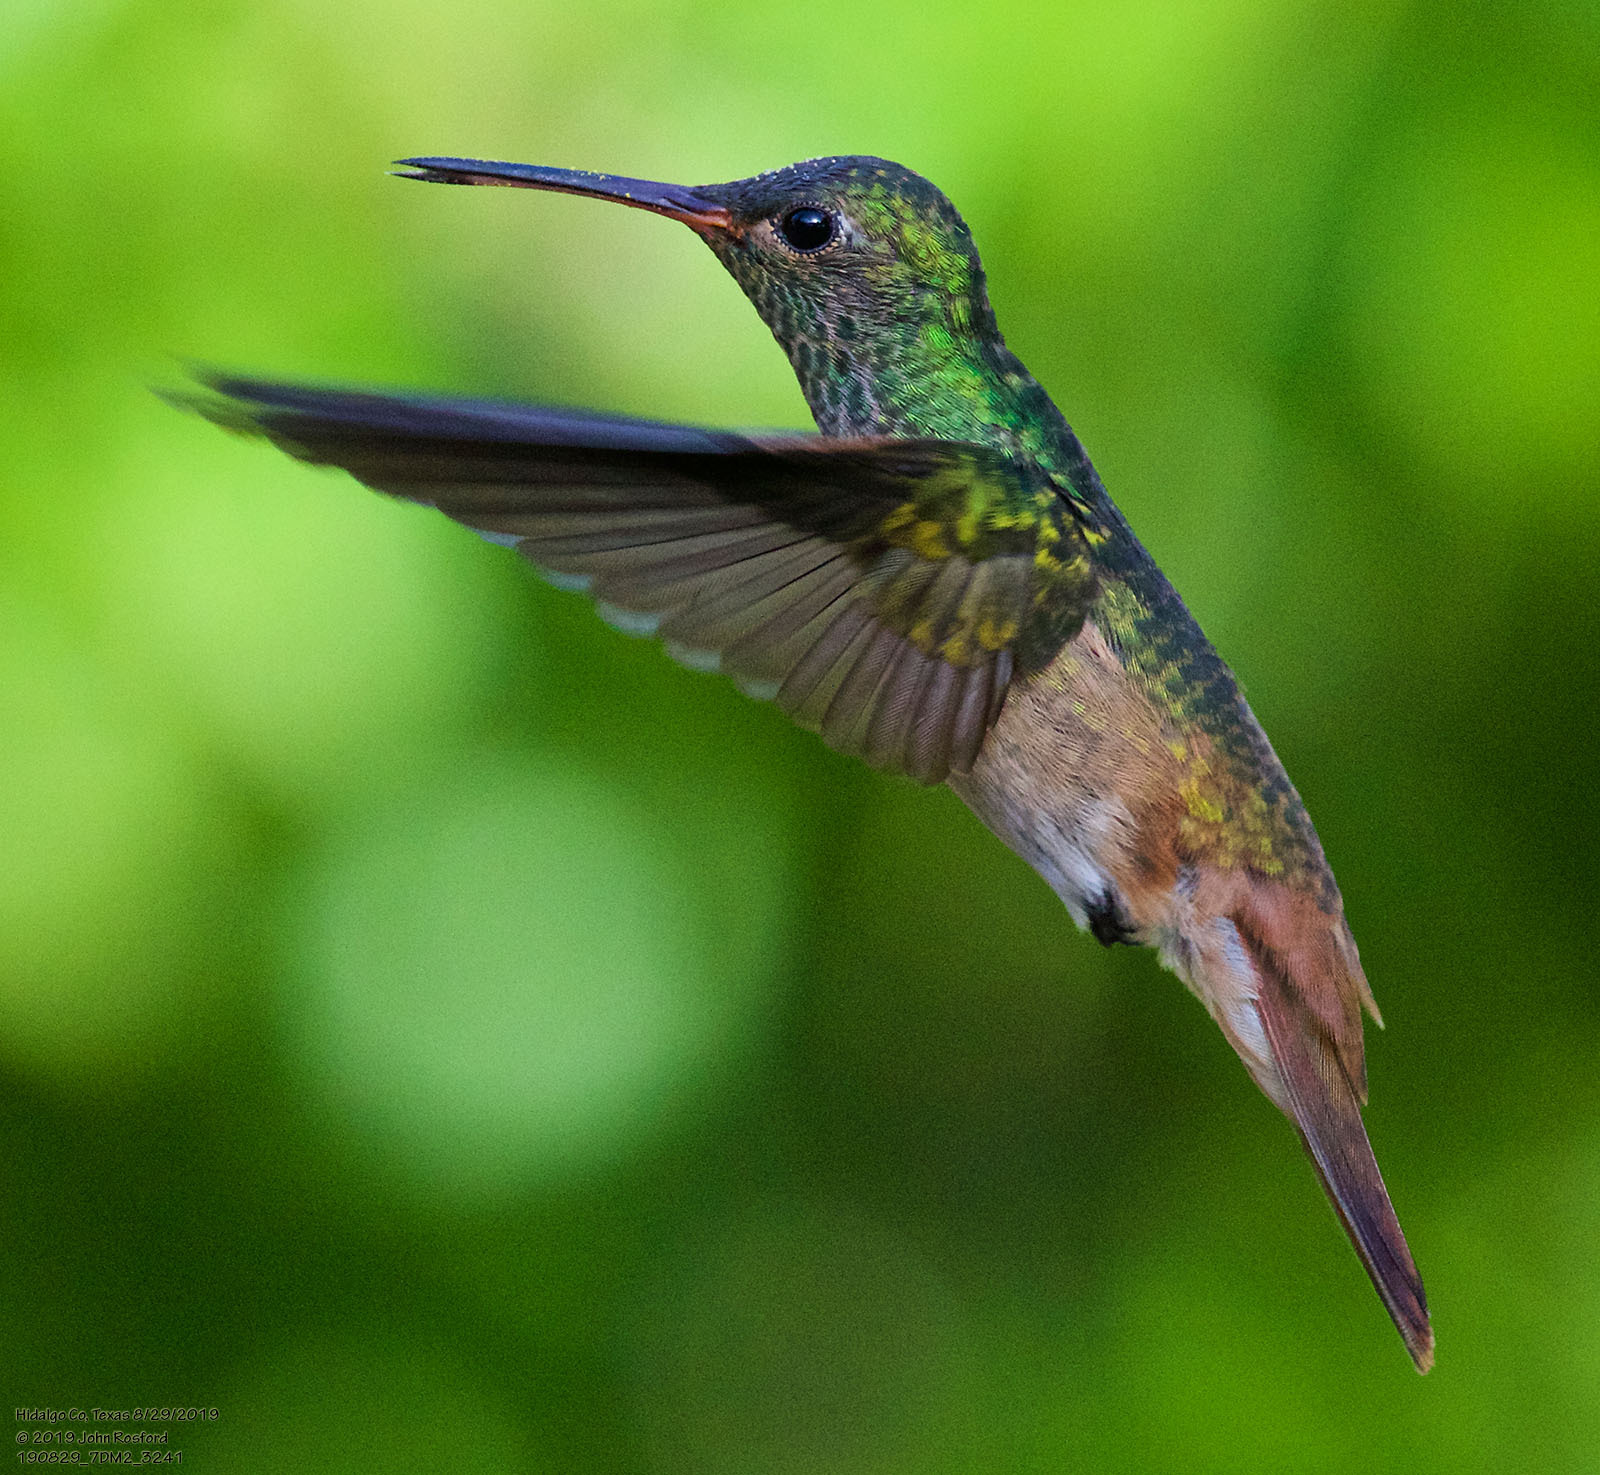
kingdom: Animalia
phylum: Chordata
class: Aves
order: Apodiformes
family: Trochilidae
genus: Amazilia
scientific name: Amazilia yucatanensis
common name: Buff-bellied hummingbird
